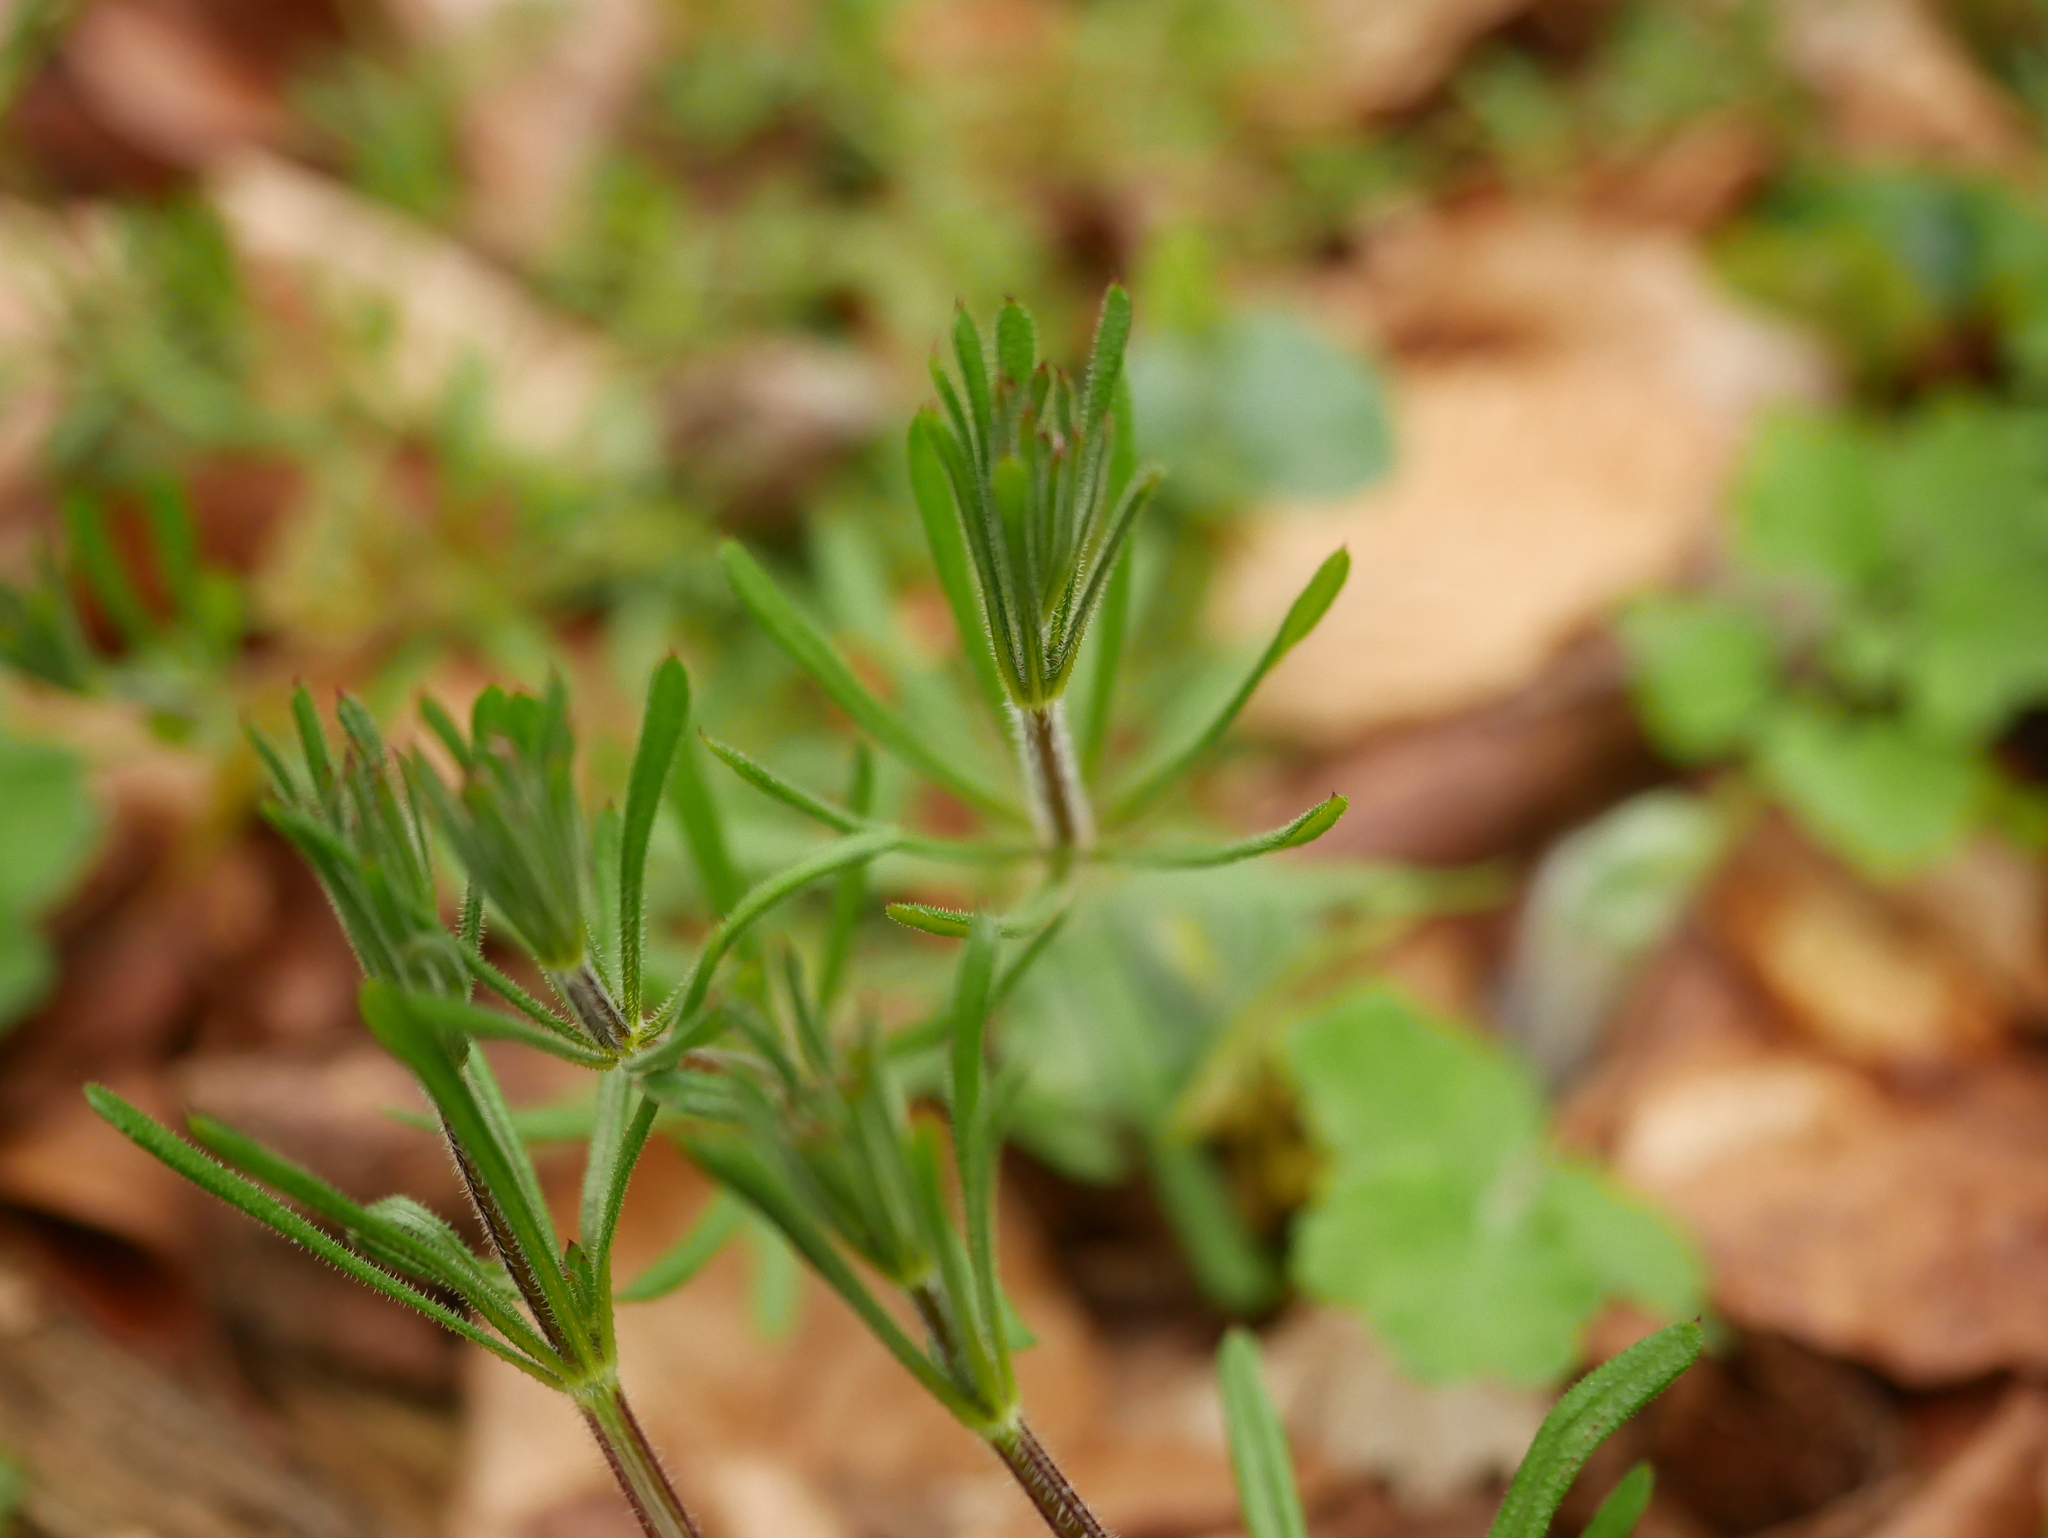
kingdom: Plantae
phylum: Tracheophyta
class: Magnoliopsida
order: Gentianales
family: Rubiaceae
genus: Galium
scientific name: Galium aparine
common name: Cleavers
